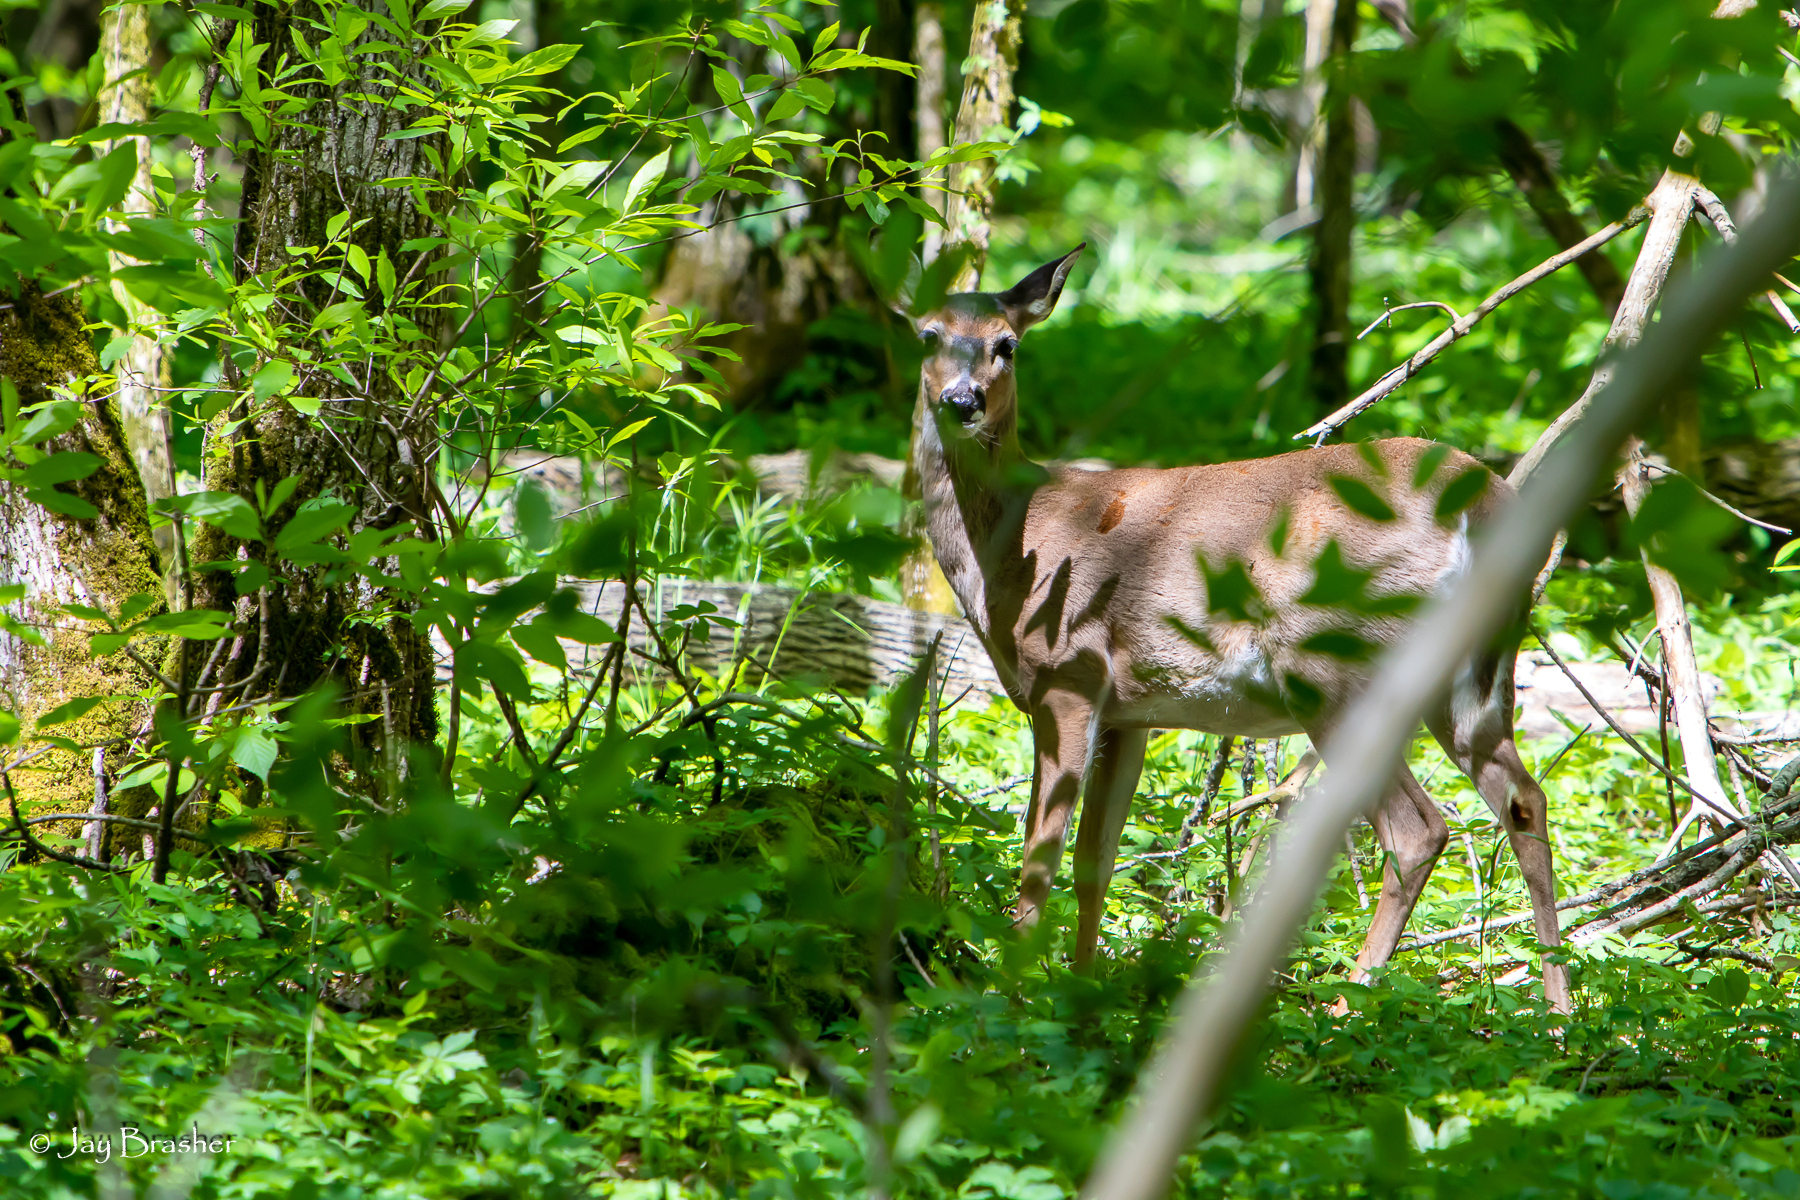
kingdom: Animalia
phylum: Chordata
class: Mammalia
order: Artiodactyla
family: Cervidae
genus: Odocoileus
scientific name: Odocoileus virginianus
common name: White-tailed deer
